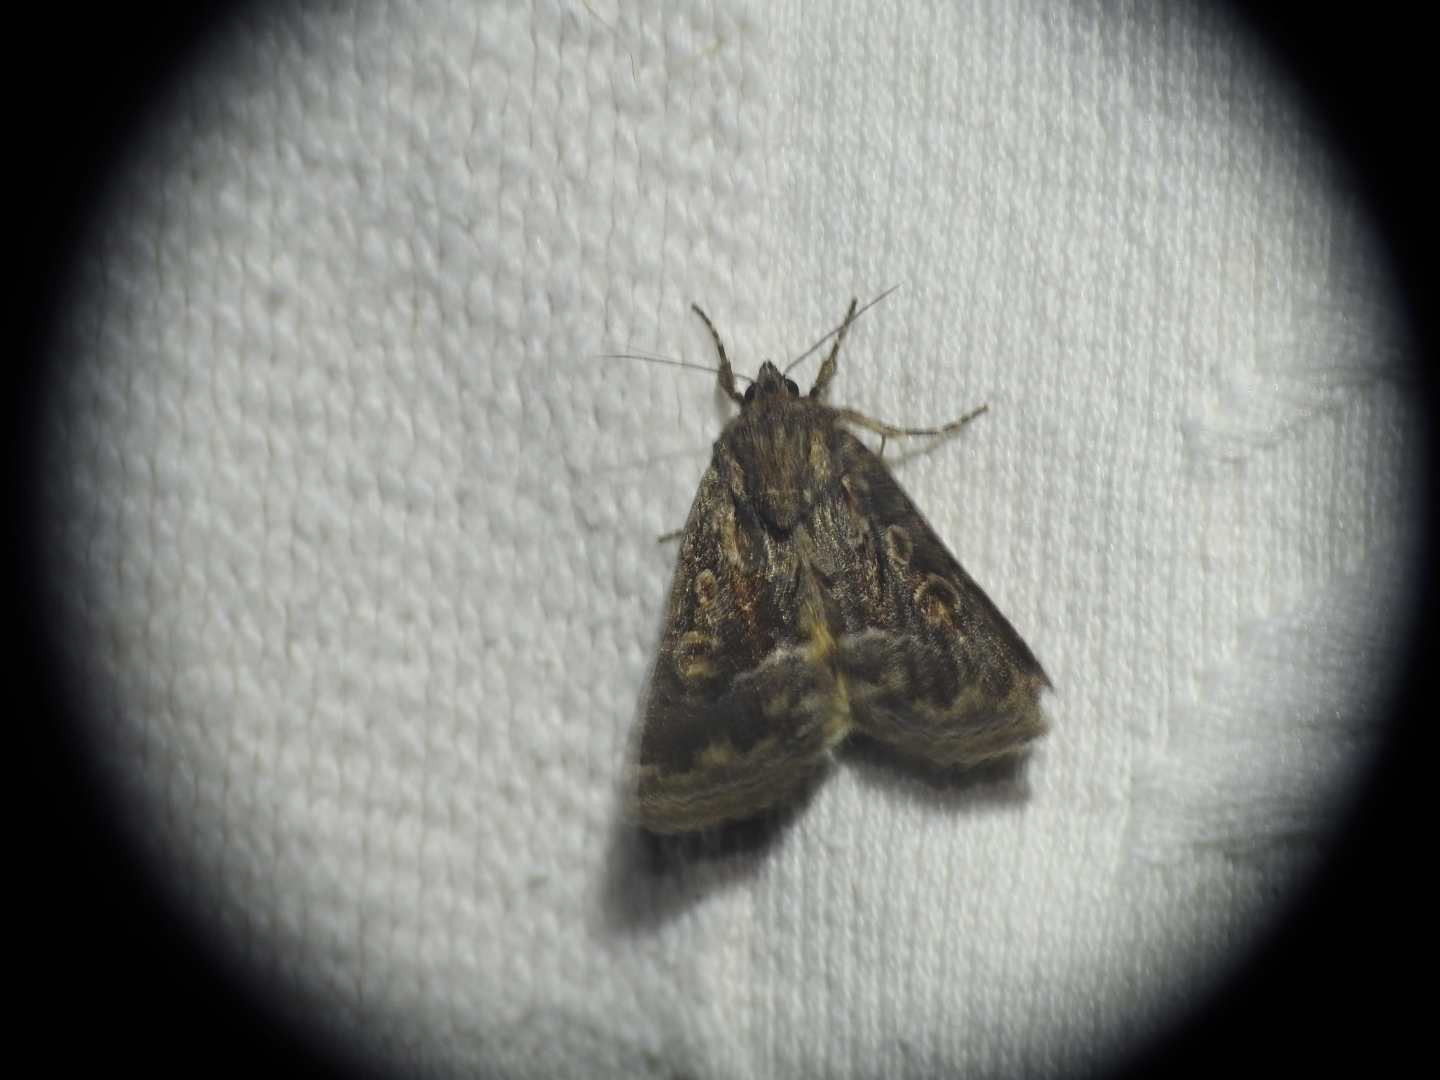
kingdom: Animalia
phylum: Arthropoda
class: Insecta
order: Lepidoptera
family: Noctuidae
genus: Thalpophila
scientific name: Thalpophila matura
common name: Straw underwing
